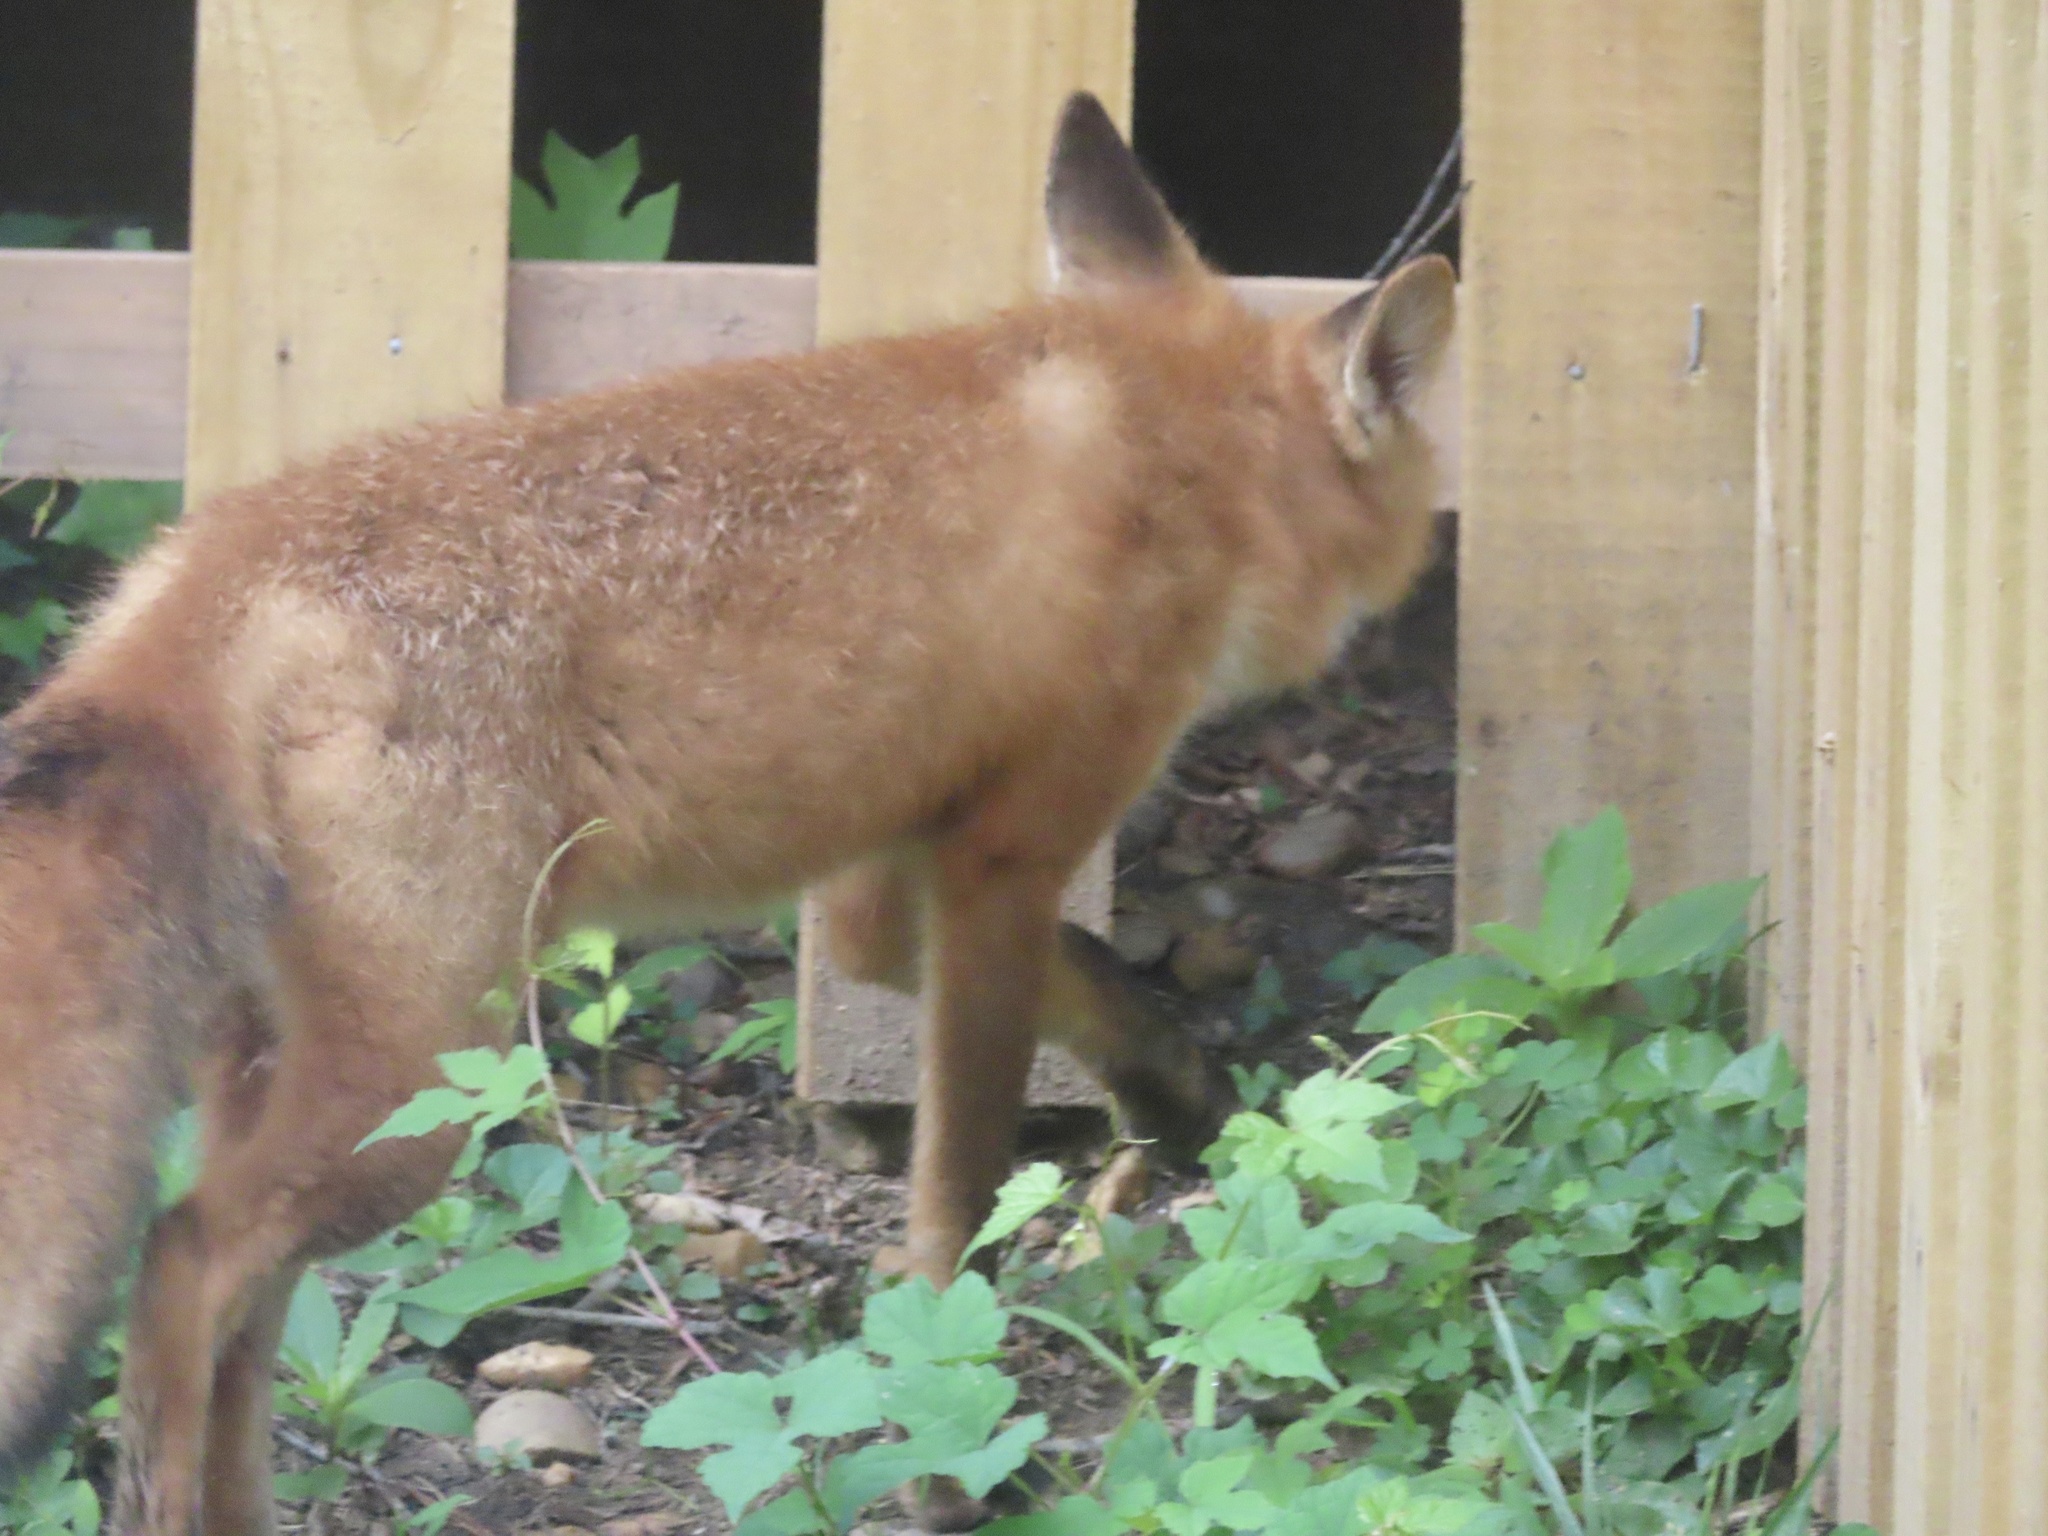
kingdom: Animalia
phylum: Chordata
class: Mammalia
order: Carnivora
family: Canidae
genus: Vulpes
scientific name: Vulpes vulpes
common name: Red fox
